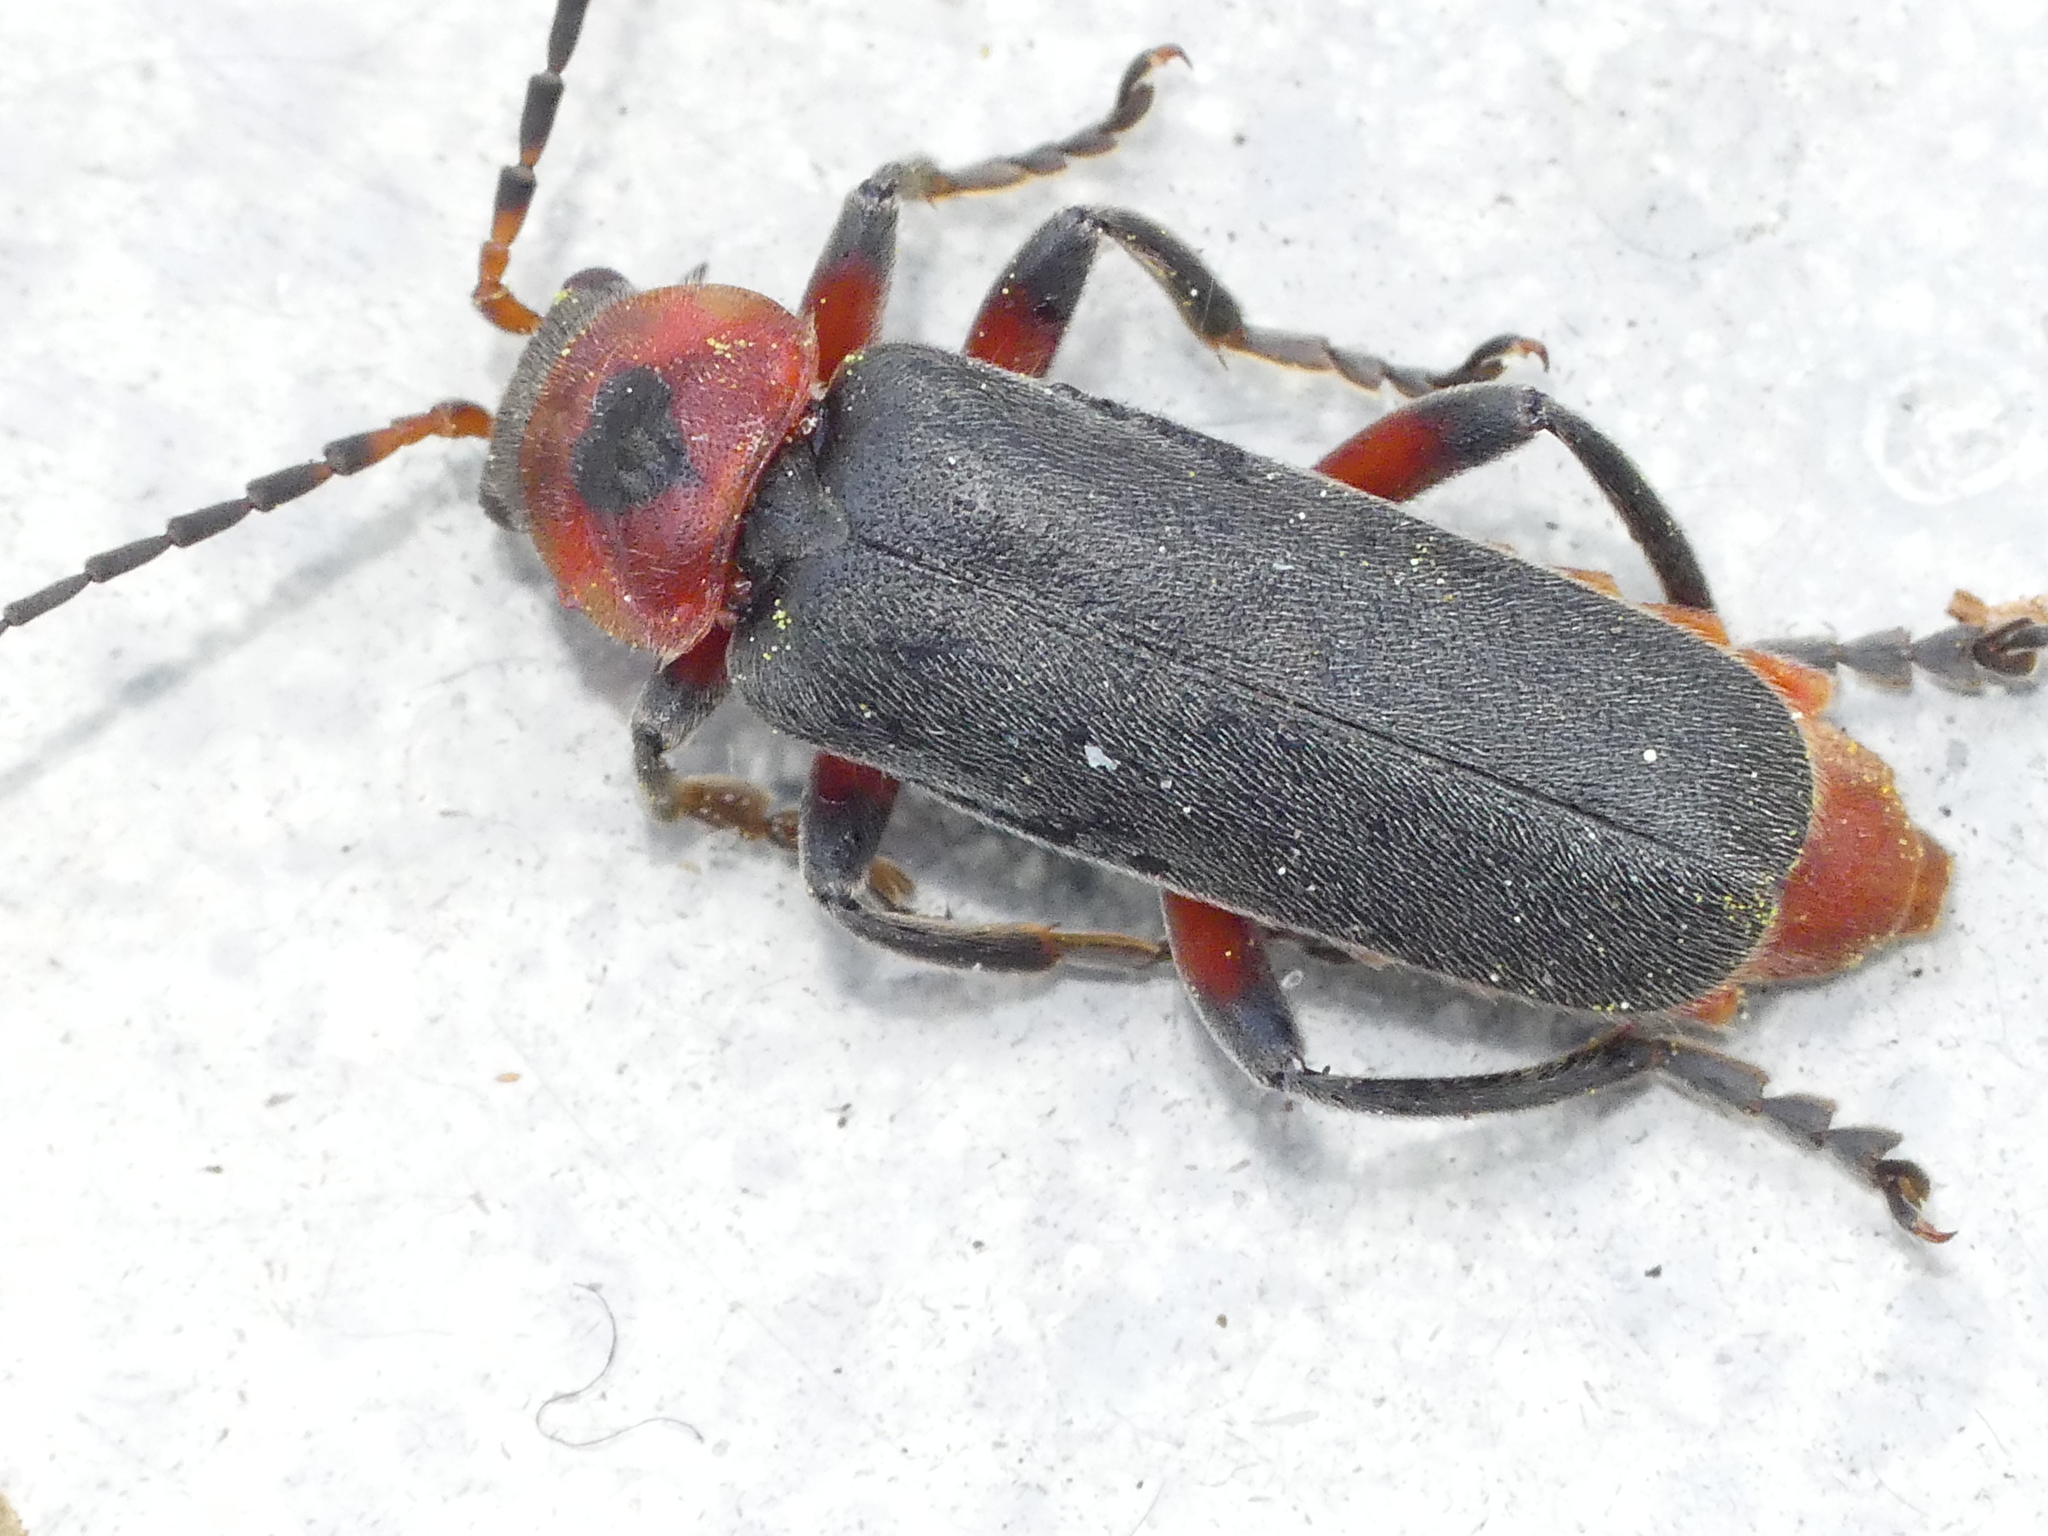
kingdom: Animalia
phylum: Arthropoda
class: Insecta
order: Coleoptera
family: Cantharidae
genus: Cantharis
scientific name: Cantharis rustica
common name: Soldier beetle
